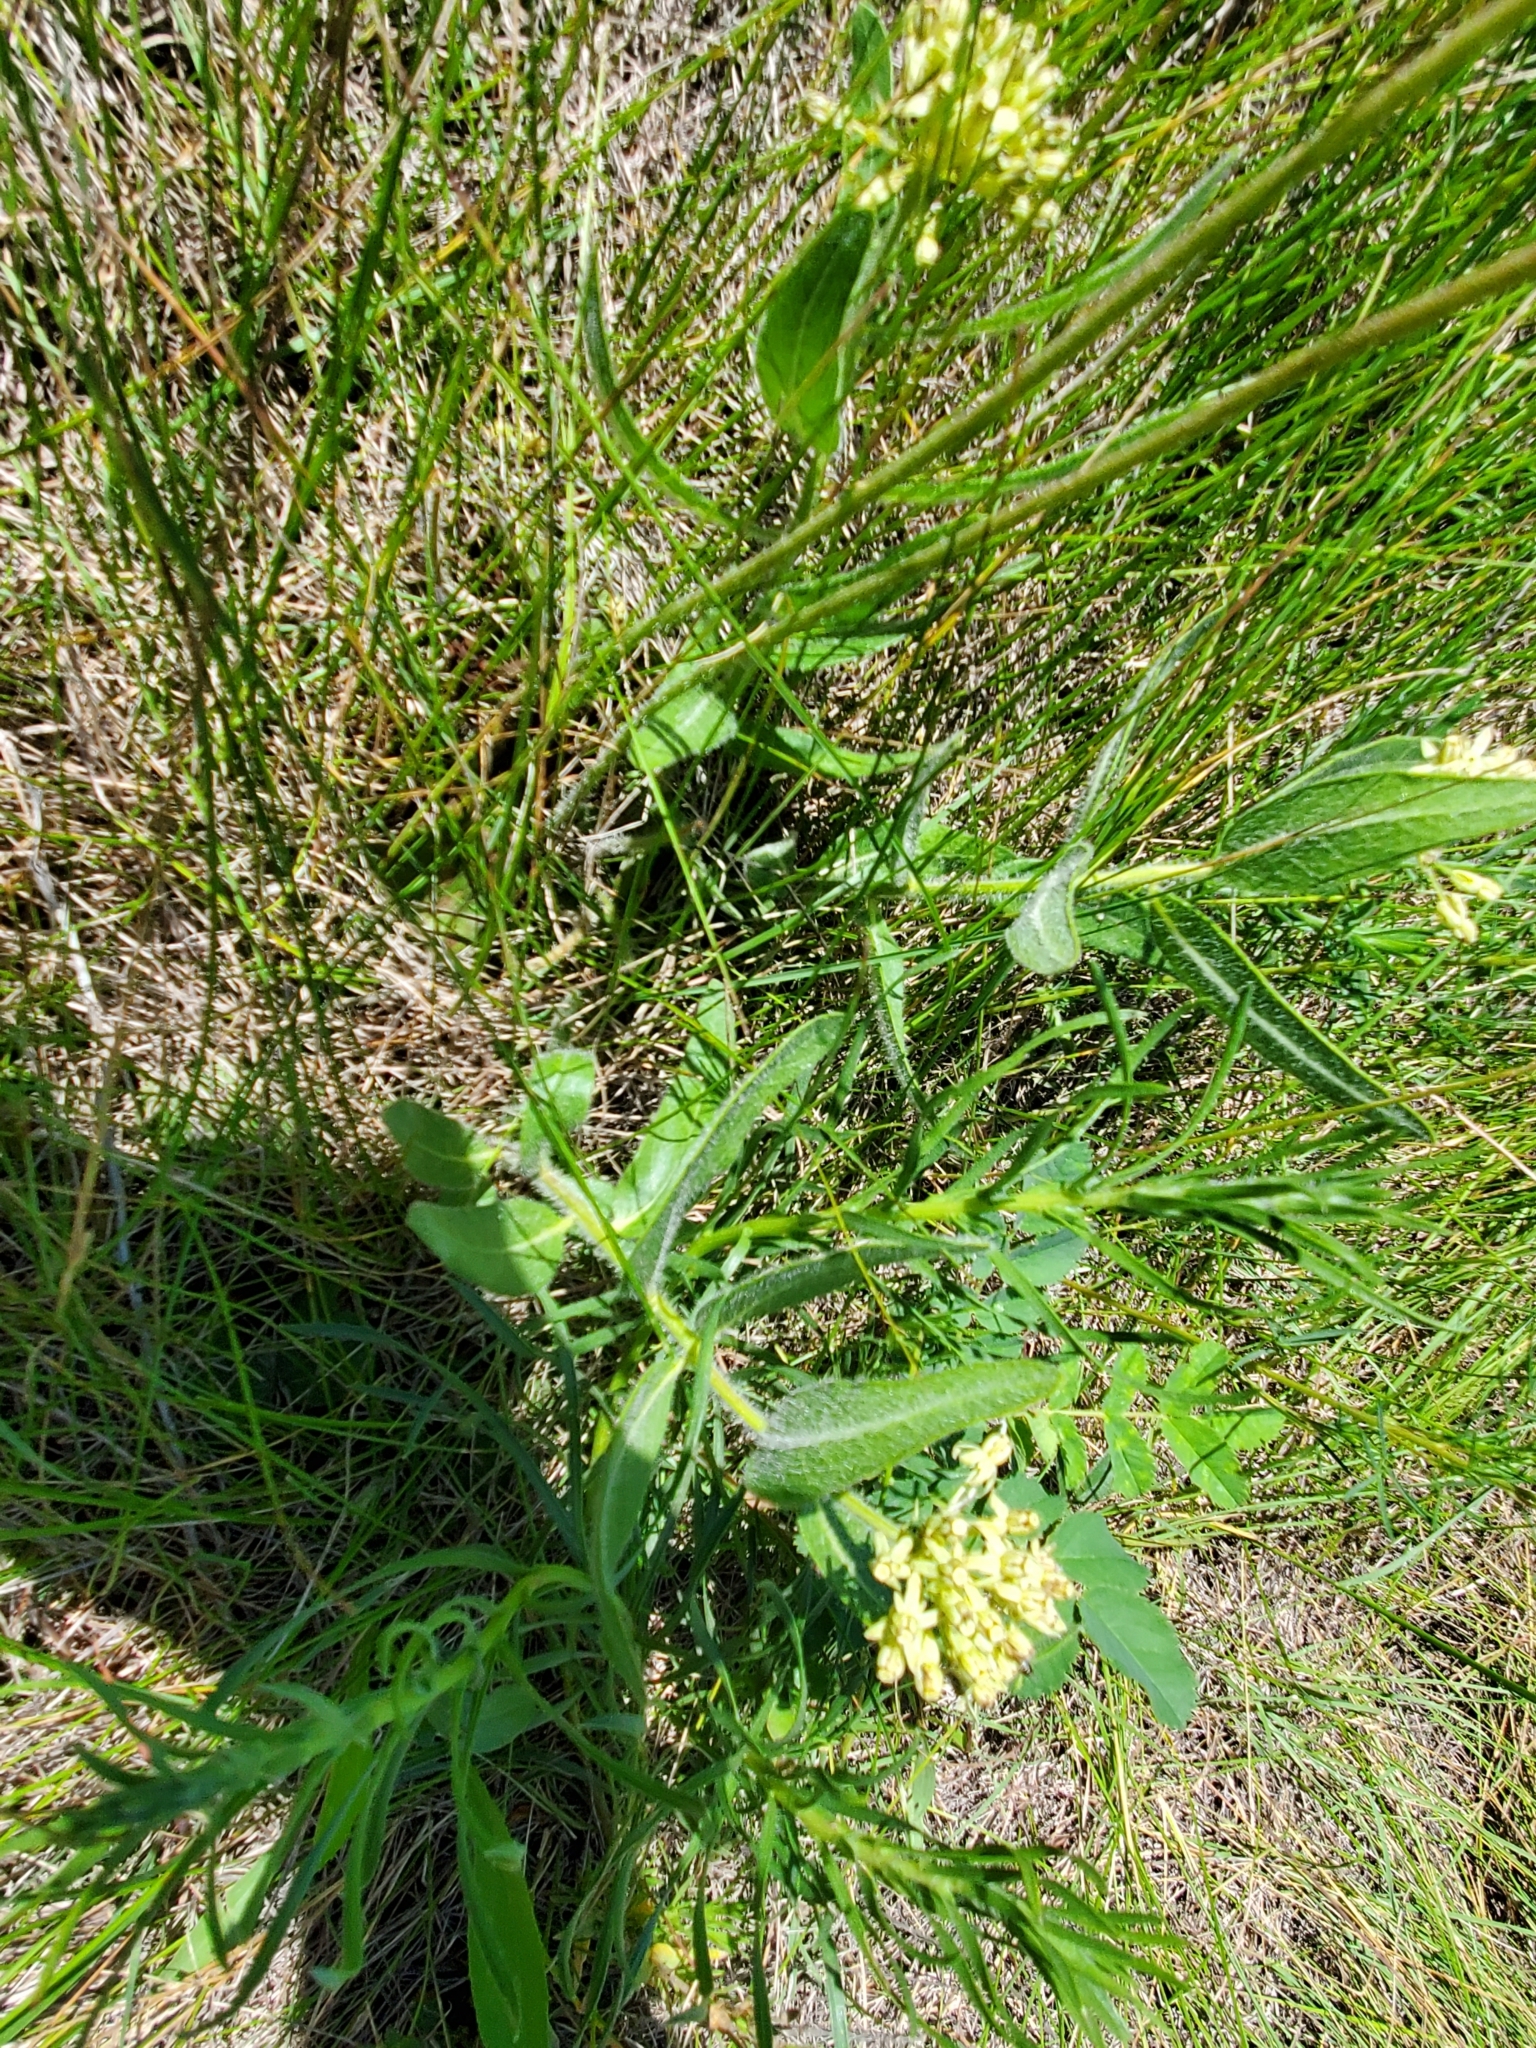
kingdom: Plantae
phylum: Tracheophyta
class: Magnoliopsida
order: Gentianales
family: Apocynaceae
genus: Asclepias
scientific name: Asclepias lanuginosa
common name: Side-cluster milkweed
